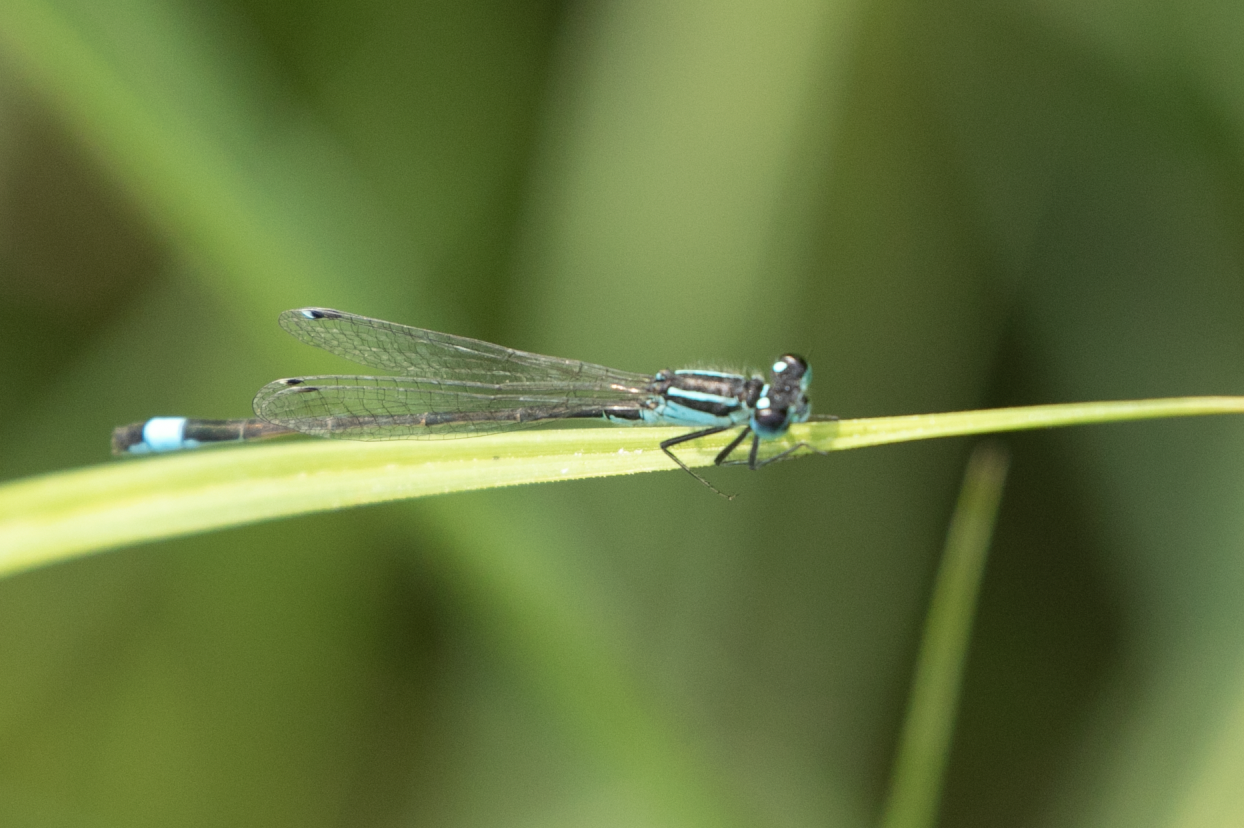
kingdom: Animalia
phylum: Arthropoda
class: Insecta
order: Odonata
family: Coenagrionidae
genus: Ischnura
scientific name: Ischnura elegans
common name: Blue-tailed damselfly
